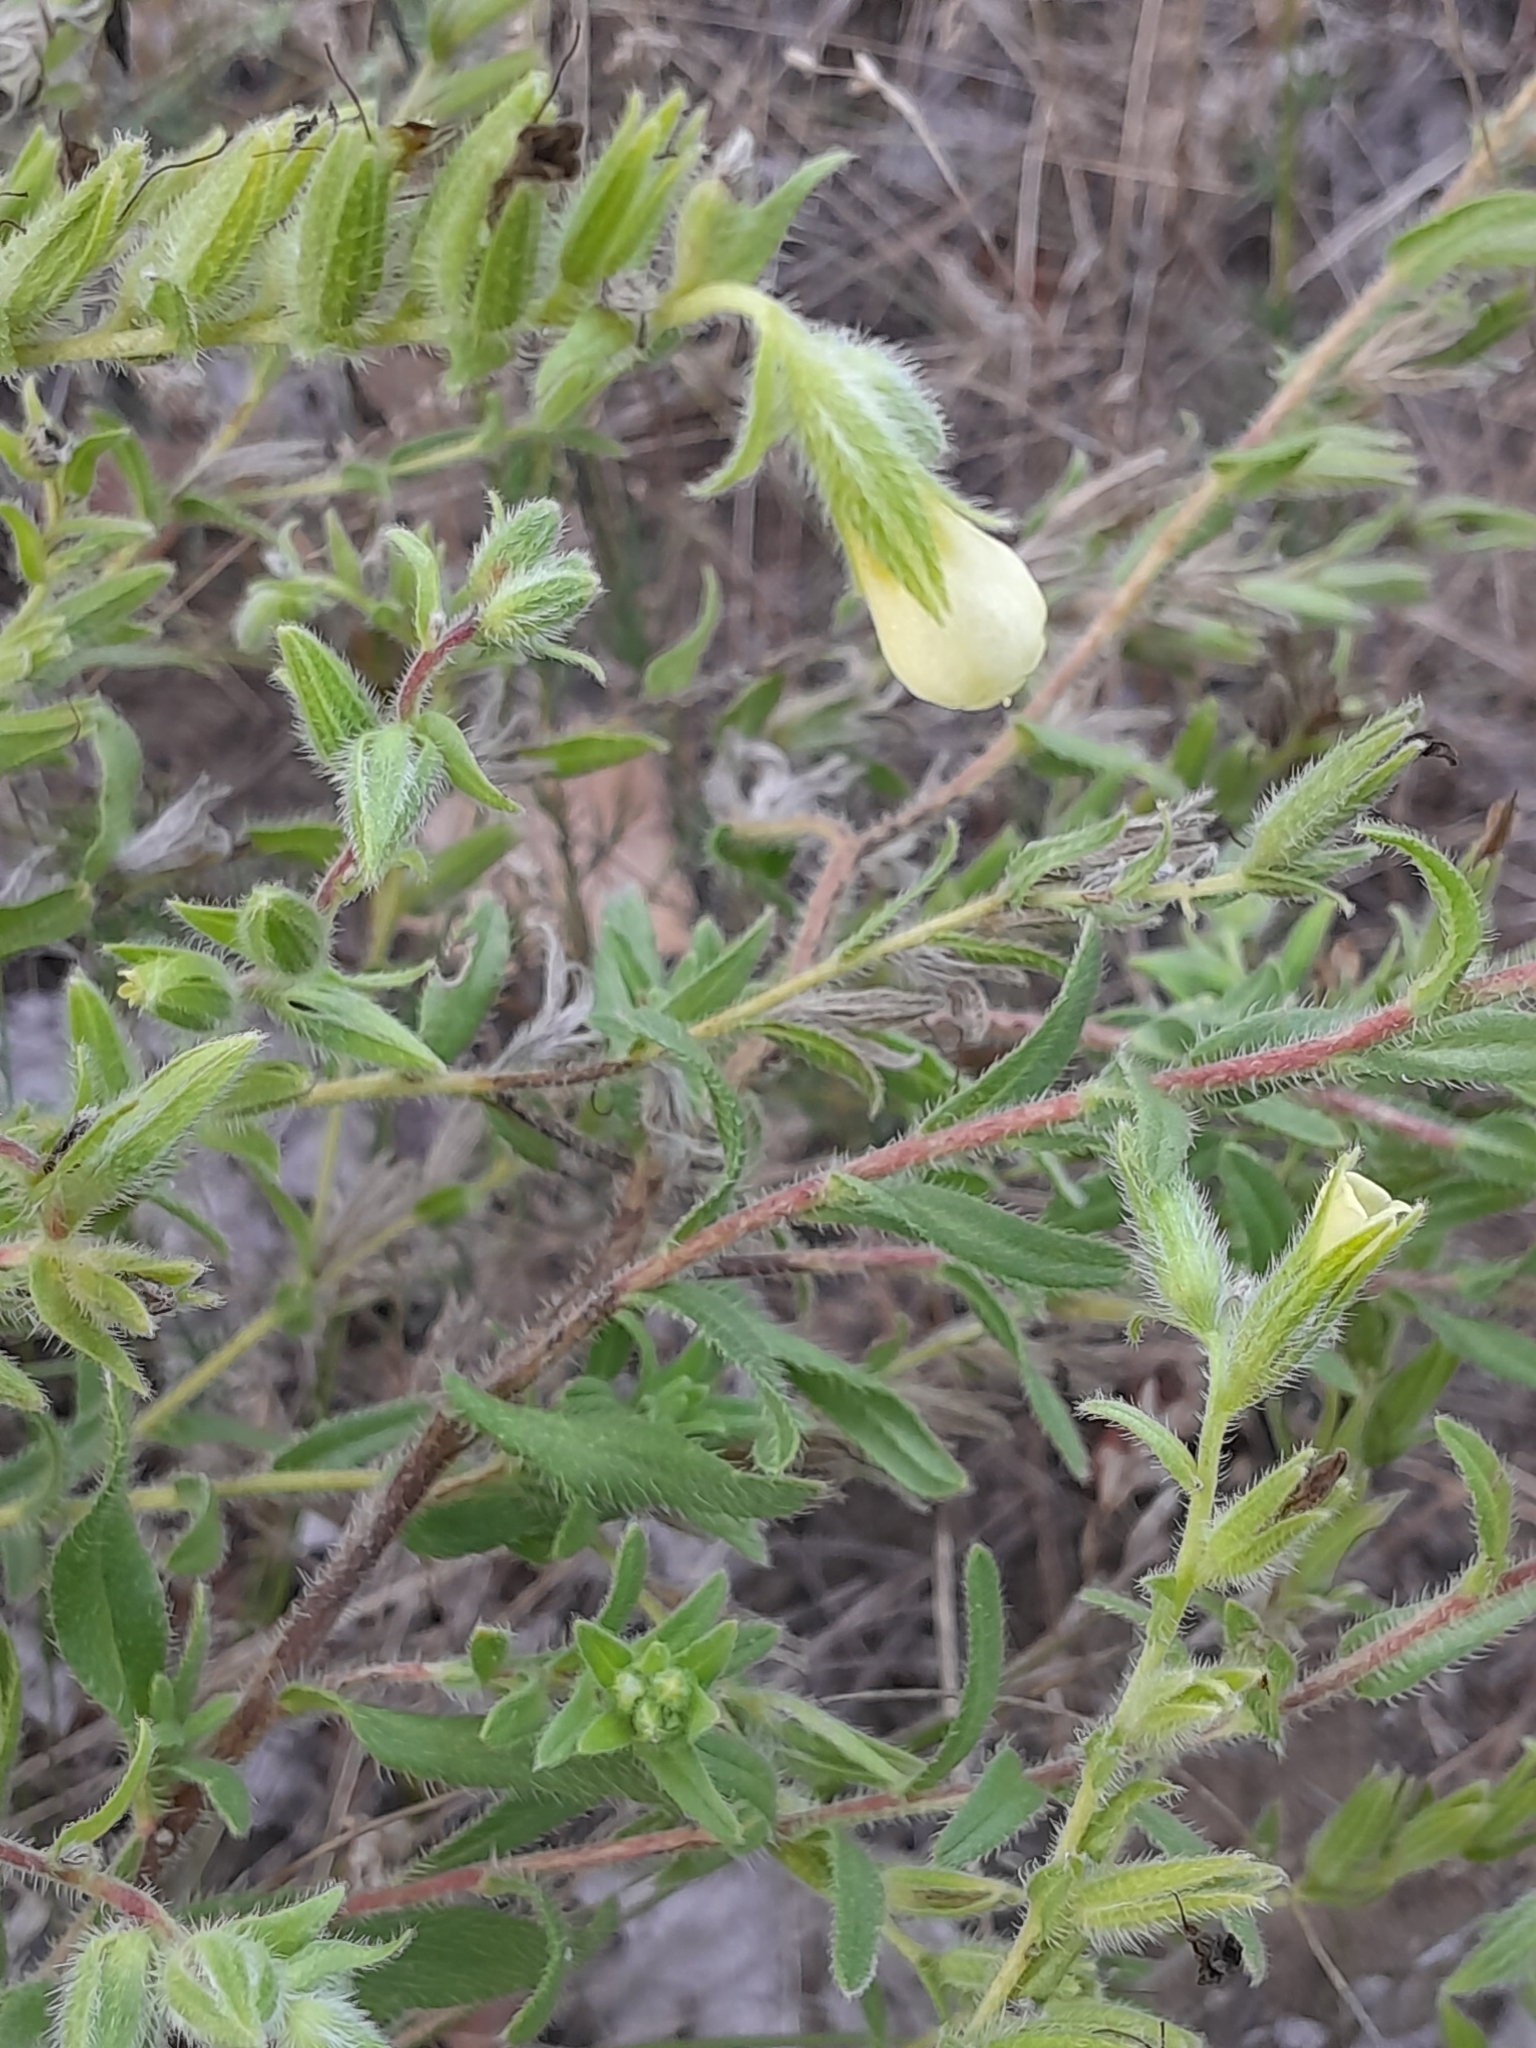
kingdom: Plantae
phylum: Tracheophyta
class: Magnoliopsida
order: Boraginales
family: Boraginaceae
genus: Onosma
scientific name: Onosma arenaria
